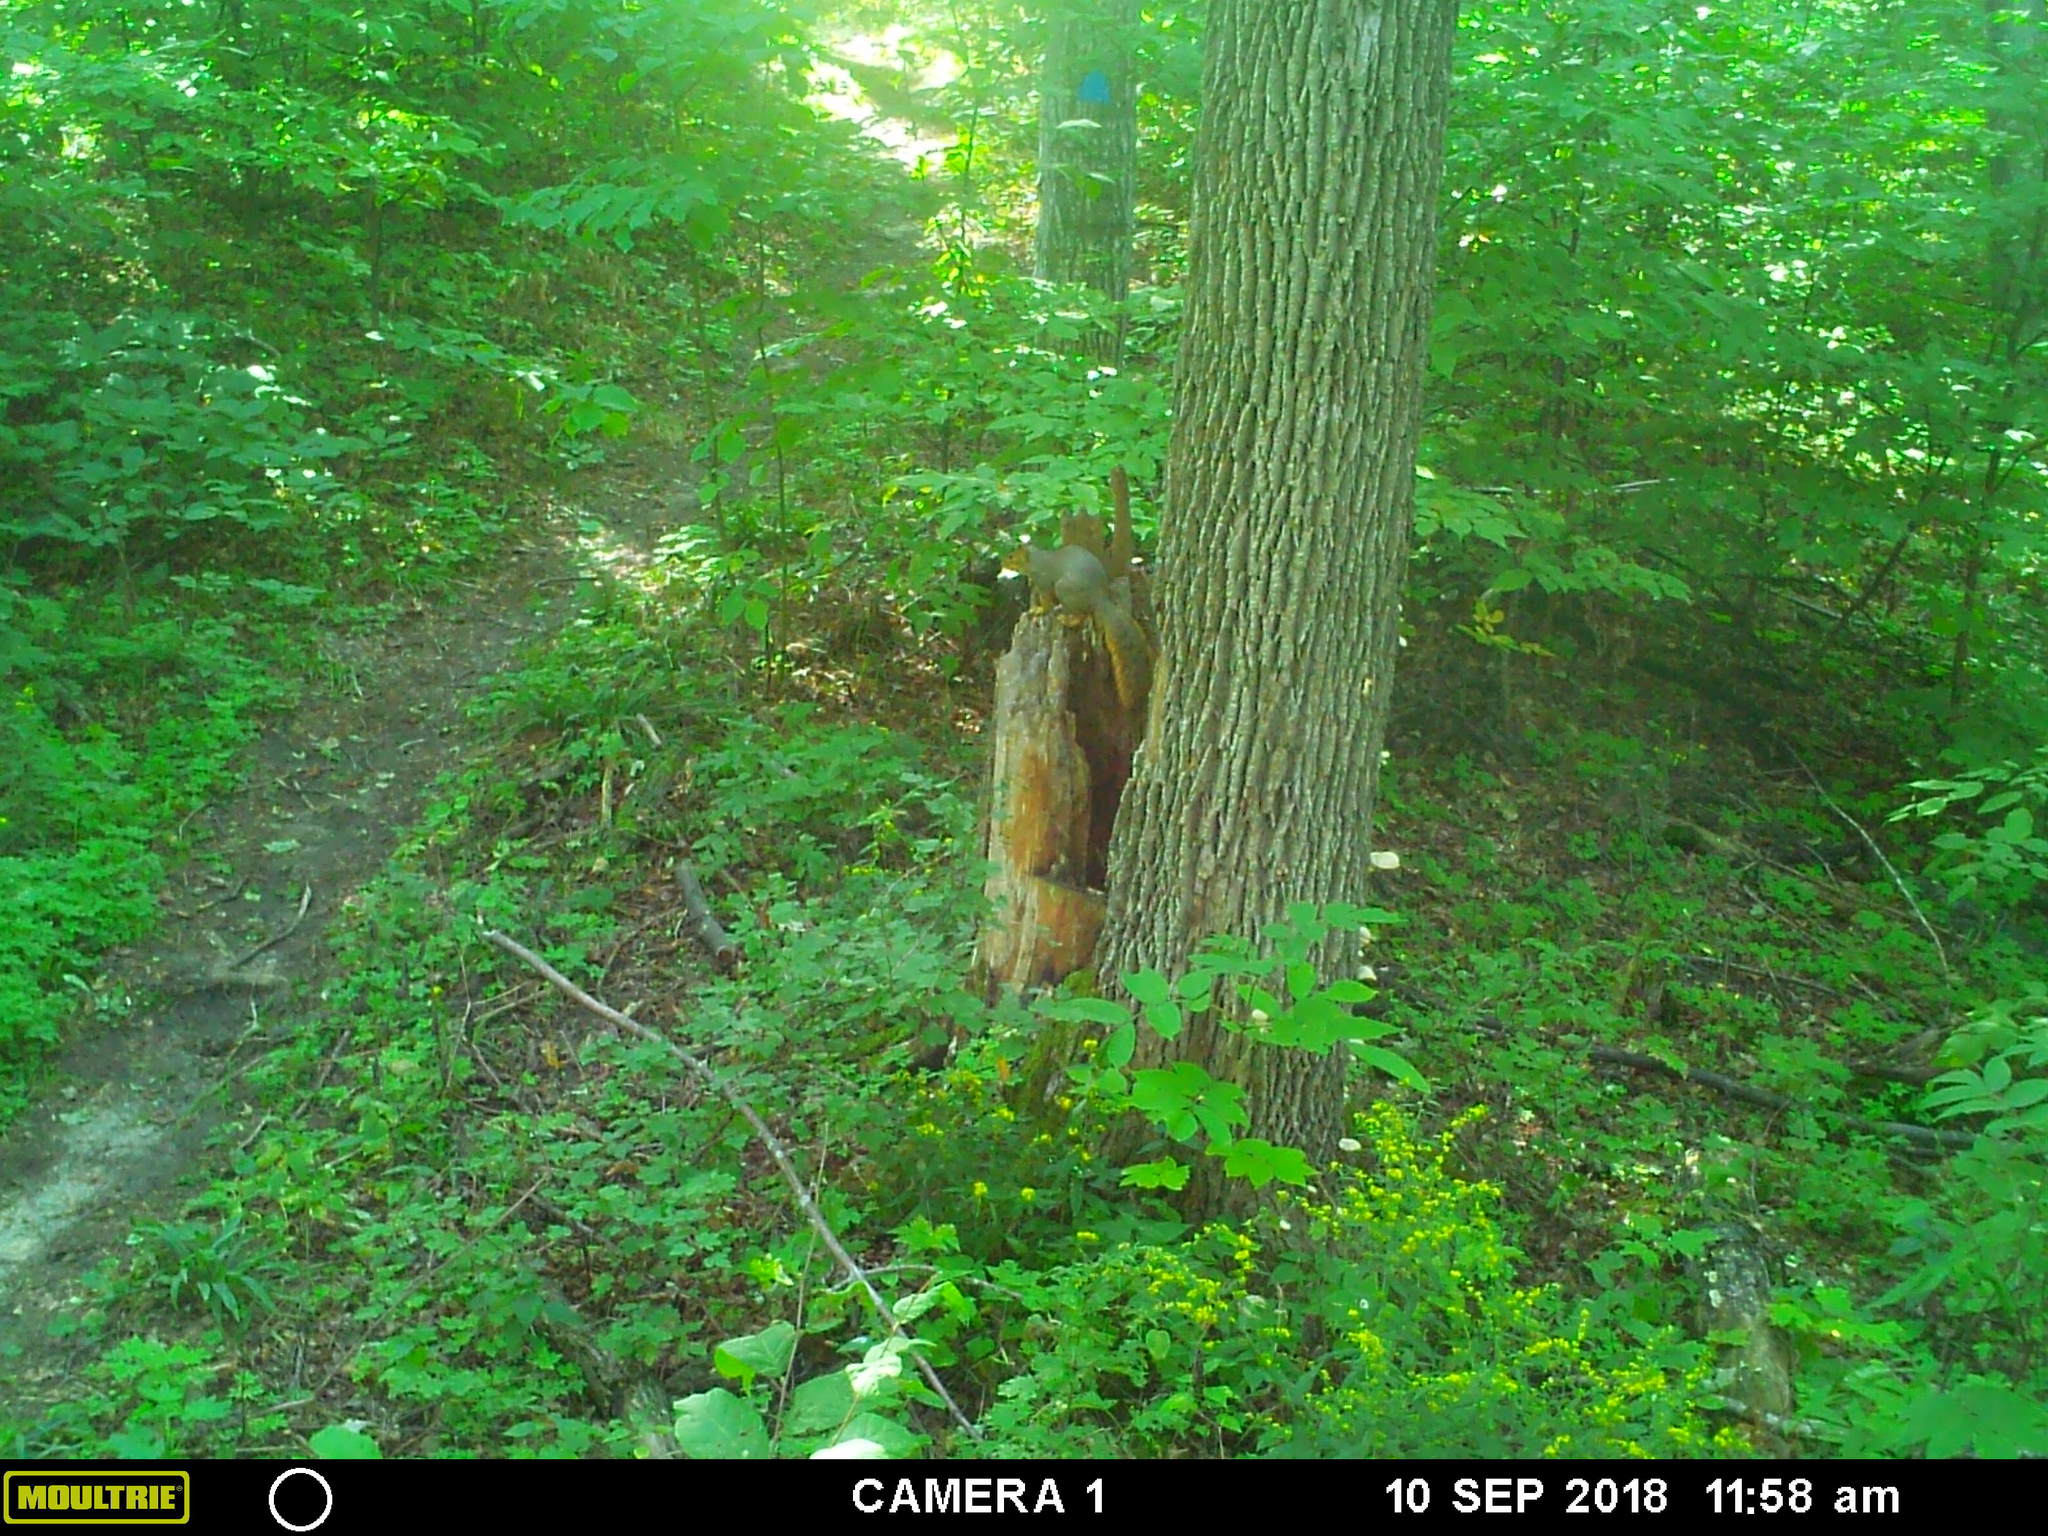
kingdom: Animalia
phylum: Chordata
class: Mammalia
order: Rodentia
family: Sciuridae
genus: Sciurus
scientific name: Sciurus niger
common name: Fox squirrel
